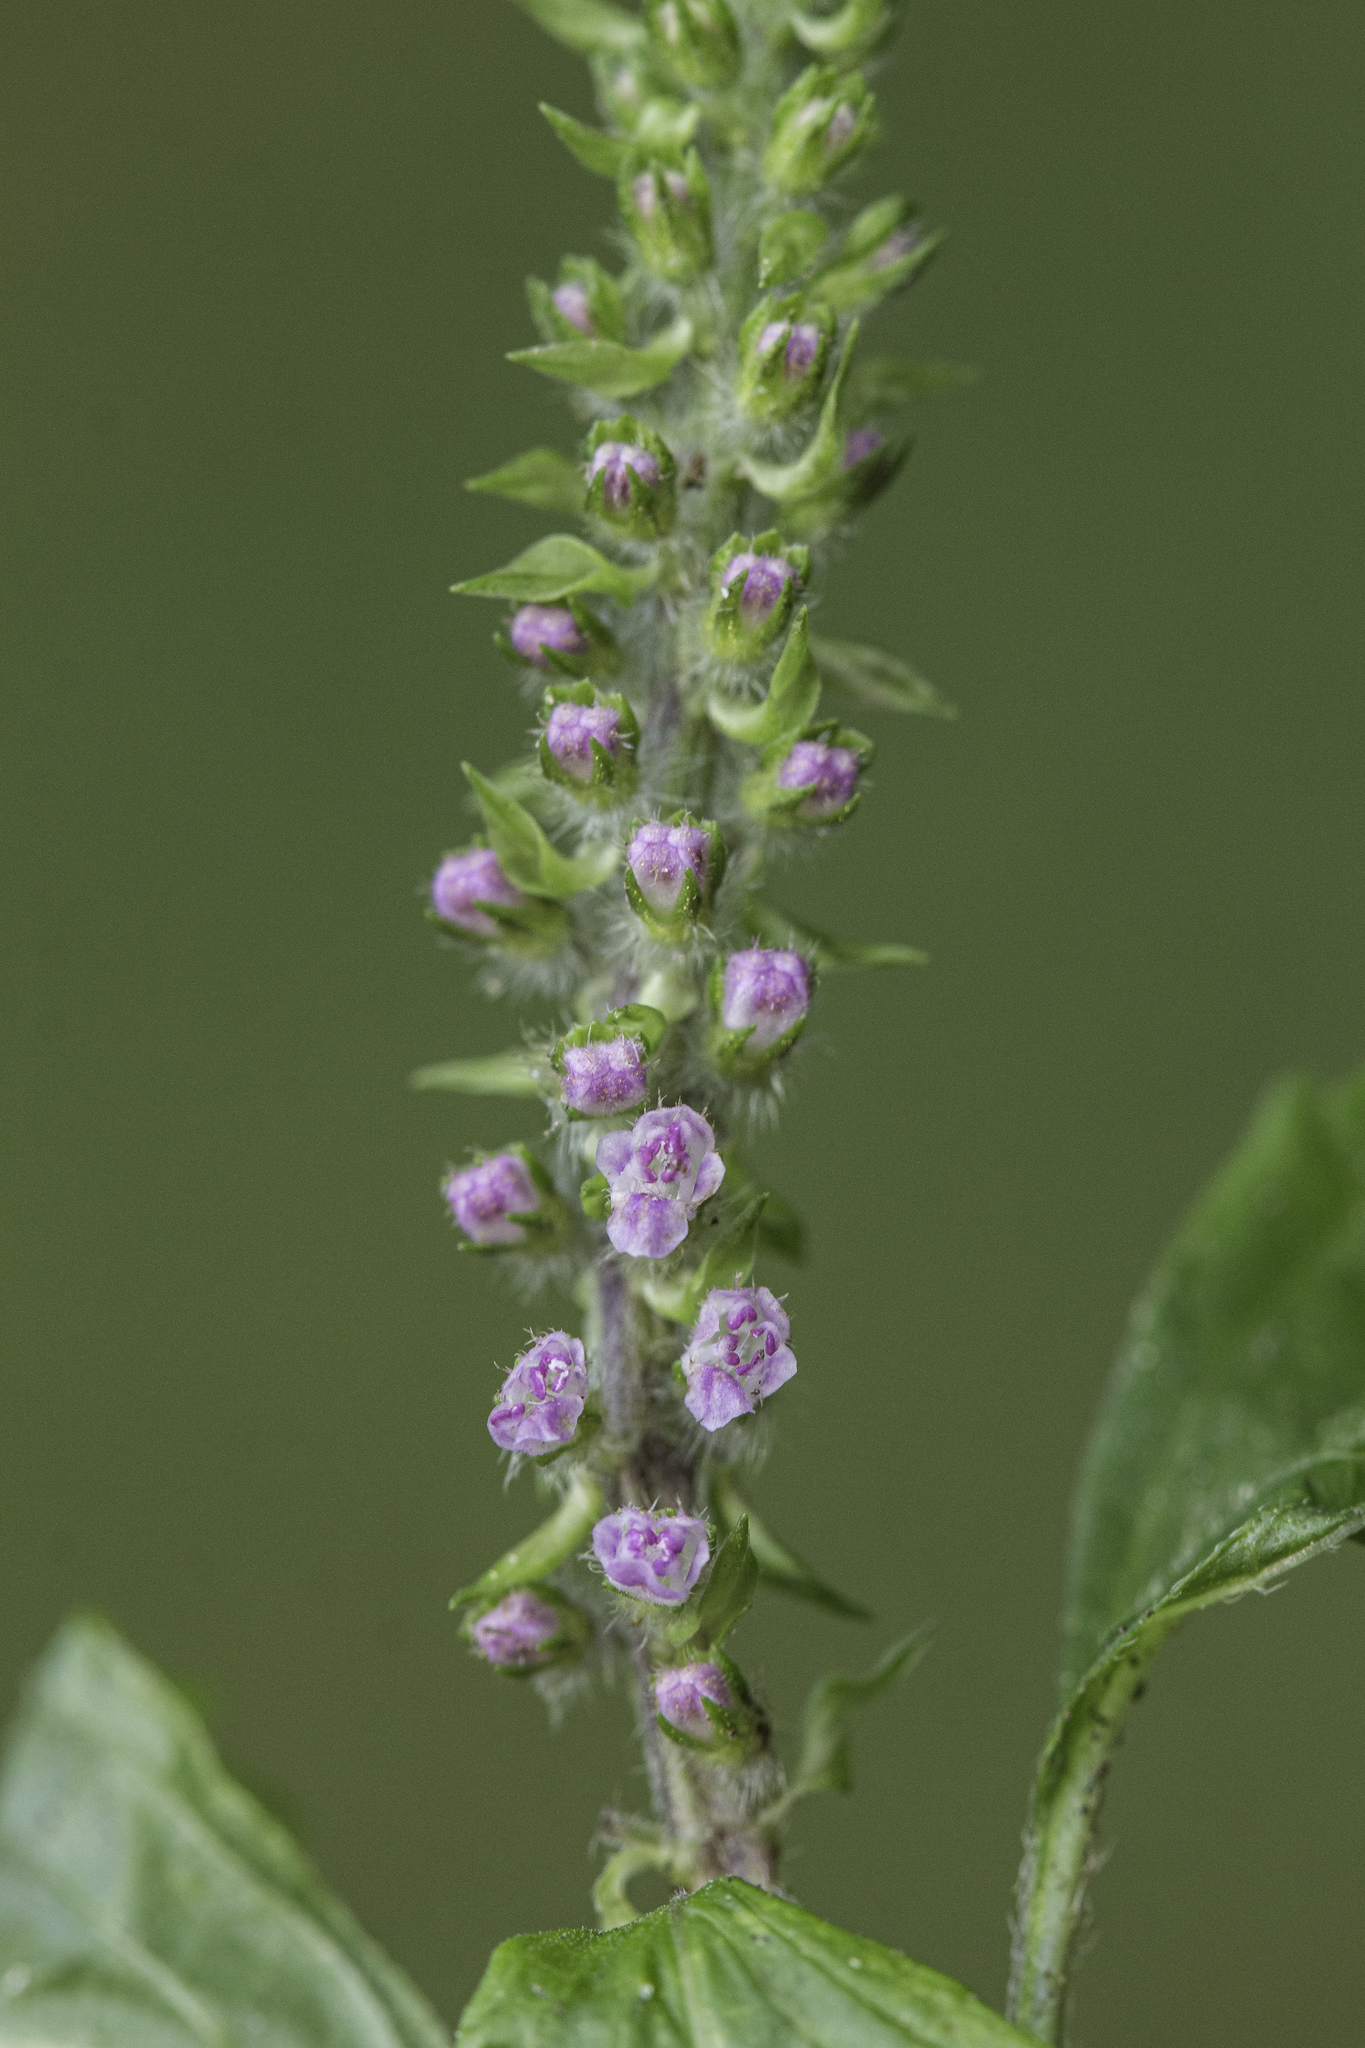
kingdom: Plantae
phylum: Tracheophyta
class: Magnoliopsida
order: Lamiales
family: Lamiaceae
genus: Perilla
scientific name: Perilla frutescens
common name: Perilla
